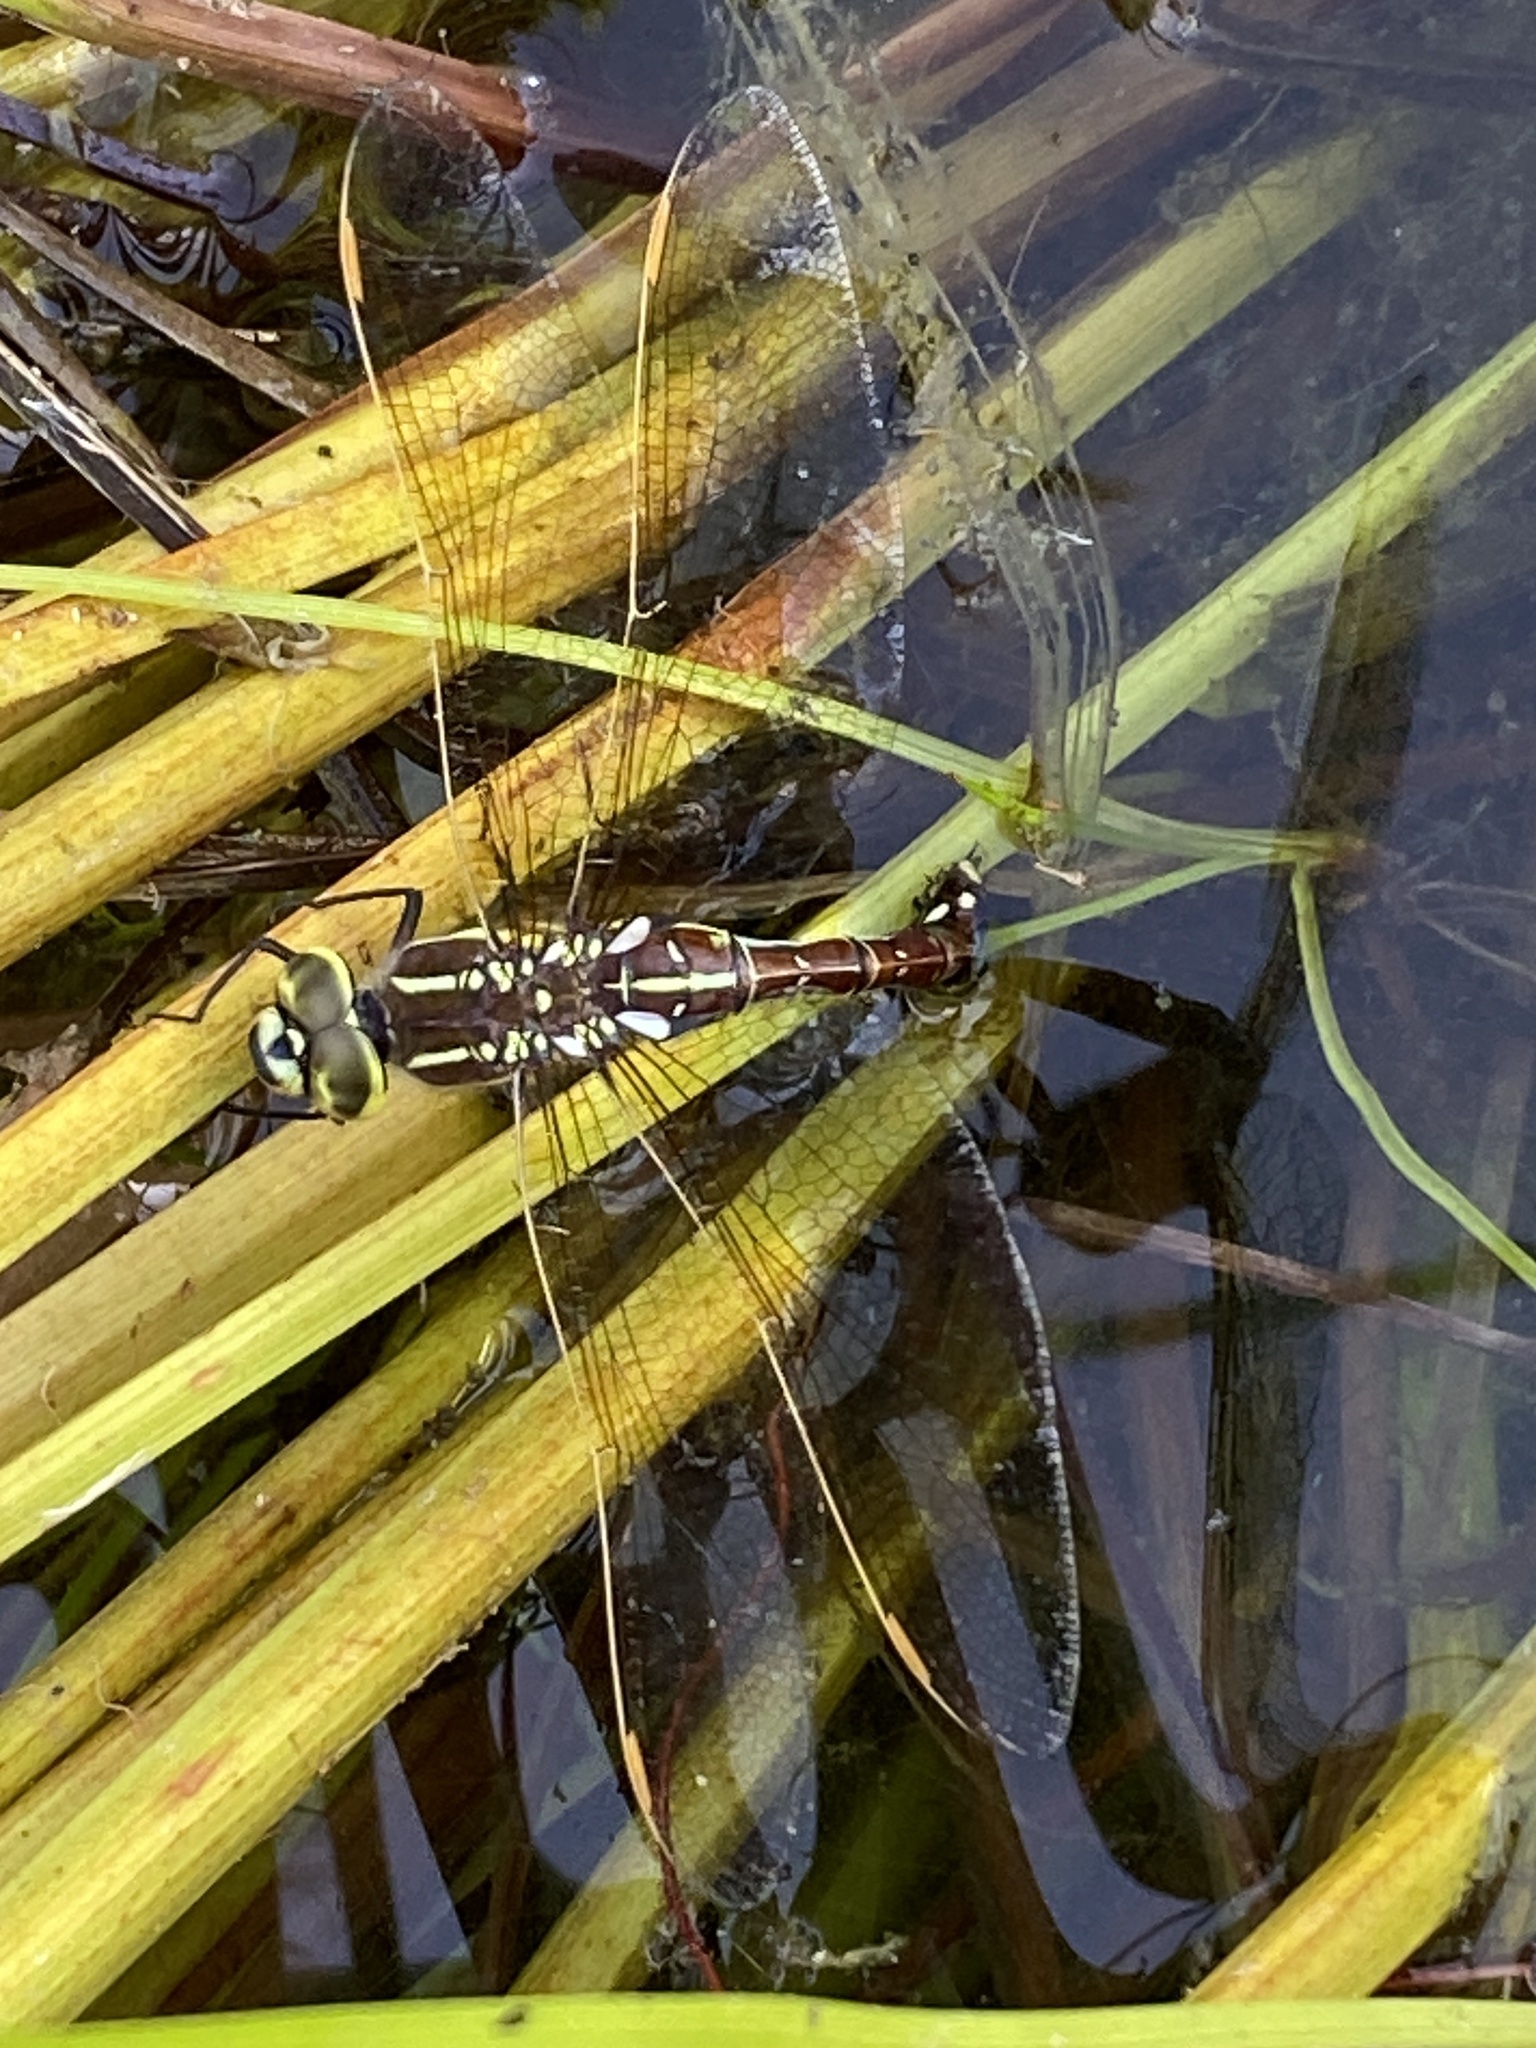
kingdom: Animalia
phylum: Arthropoda
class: Insecta
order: Odonata
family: Aeshnidae
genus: Zosteraeschna
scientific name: Zosteraeschna minuscula
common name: Friendly hawker
